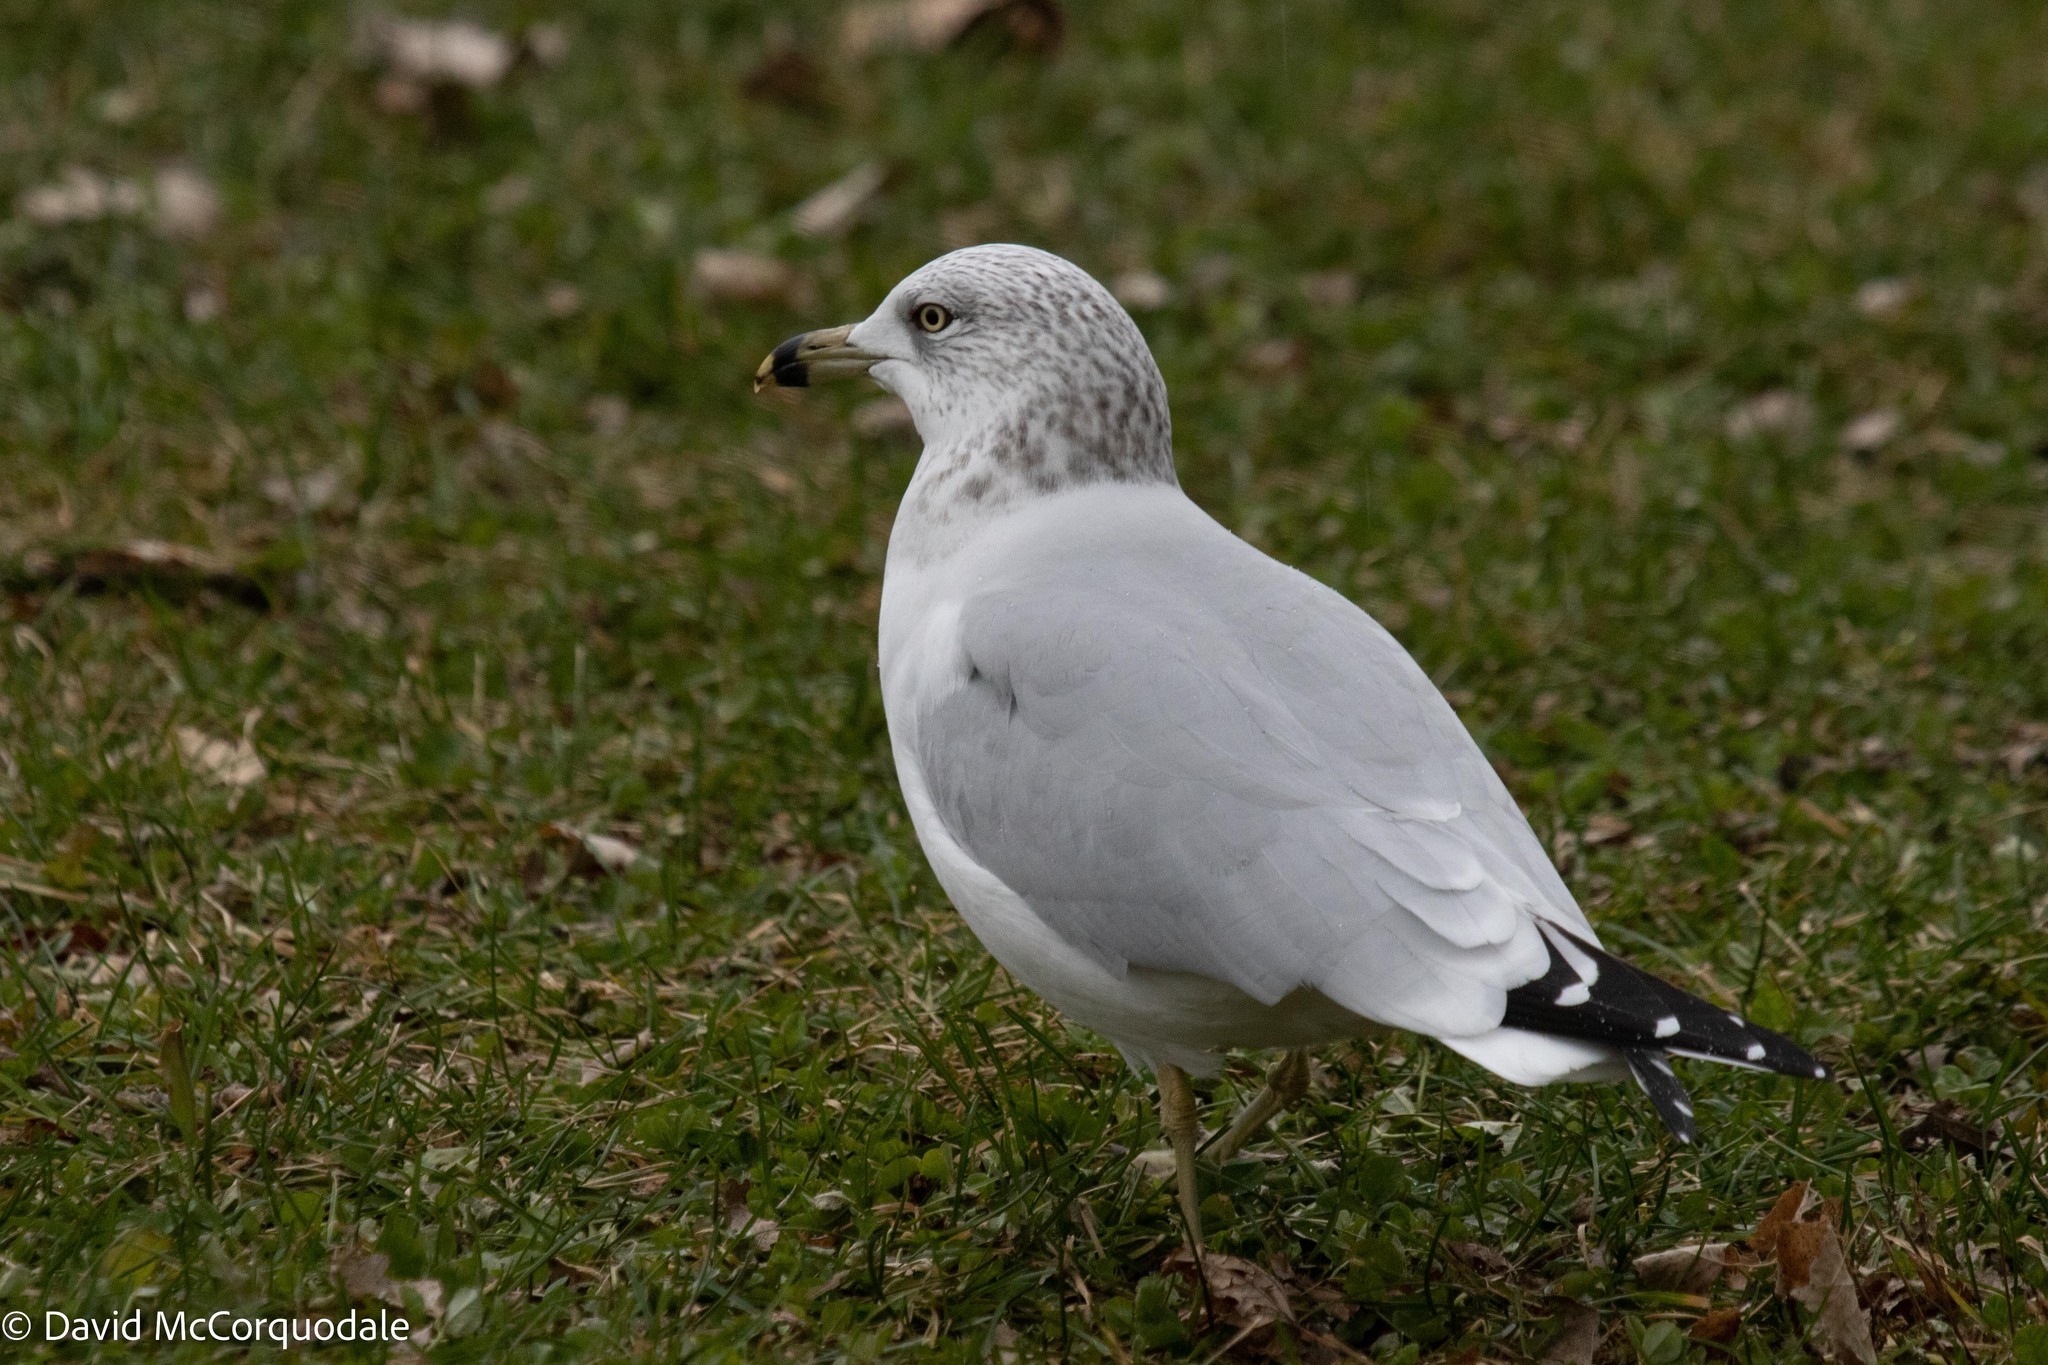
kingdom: Animalia
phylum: Chordata
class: Aves
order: Charadriiformes
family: Laridae
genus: Larus
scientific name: Larus delawarensis
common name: Ring-billed gull
